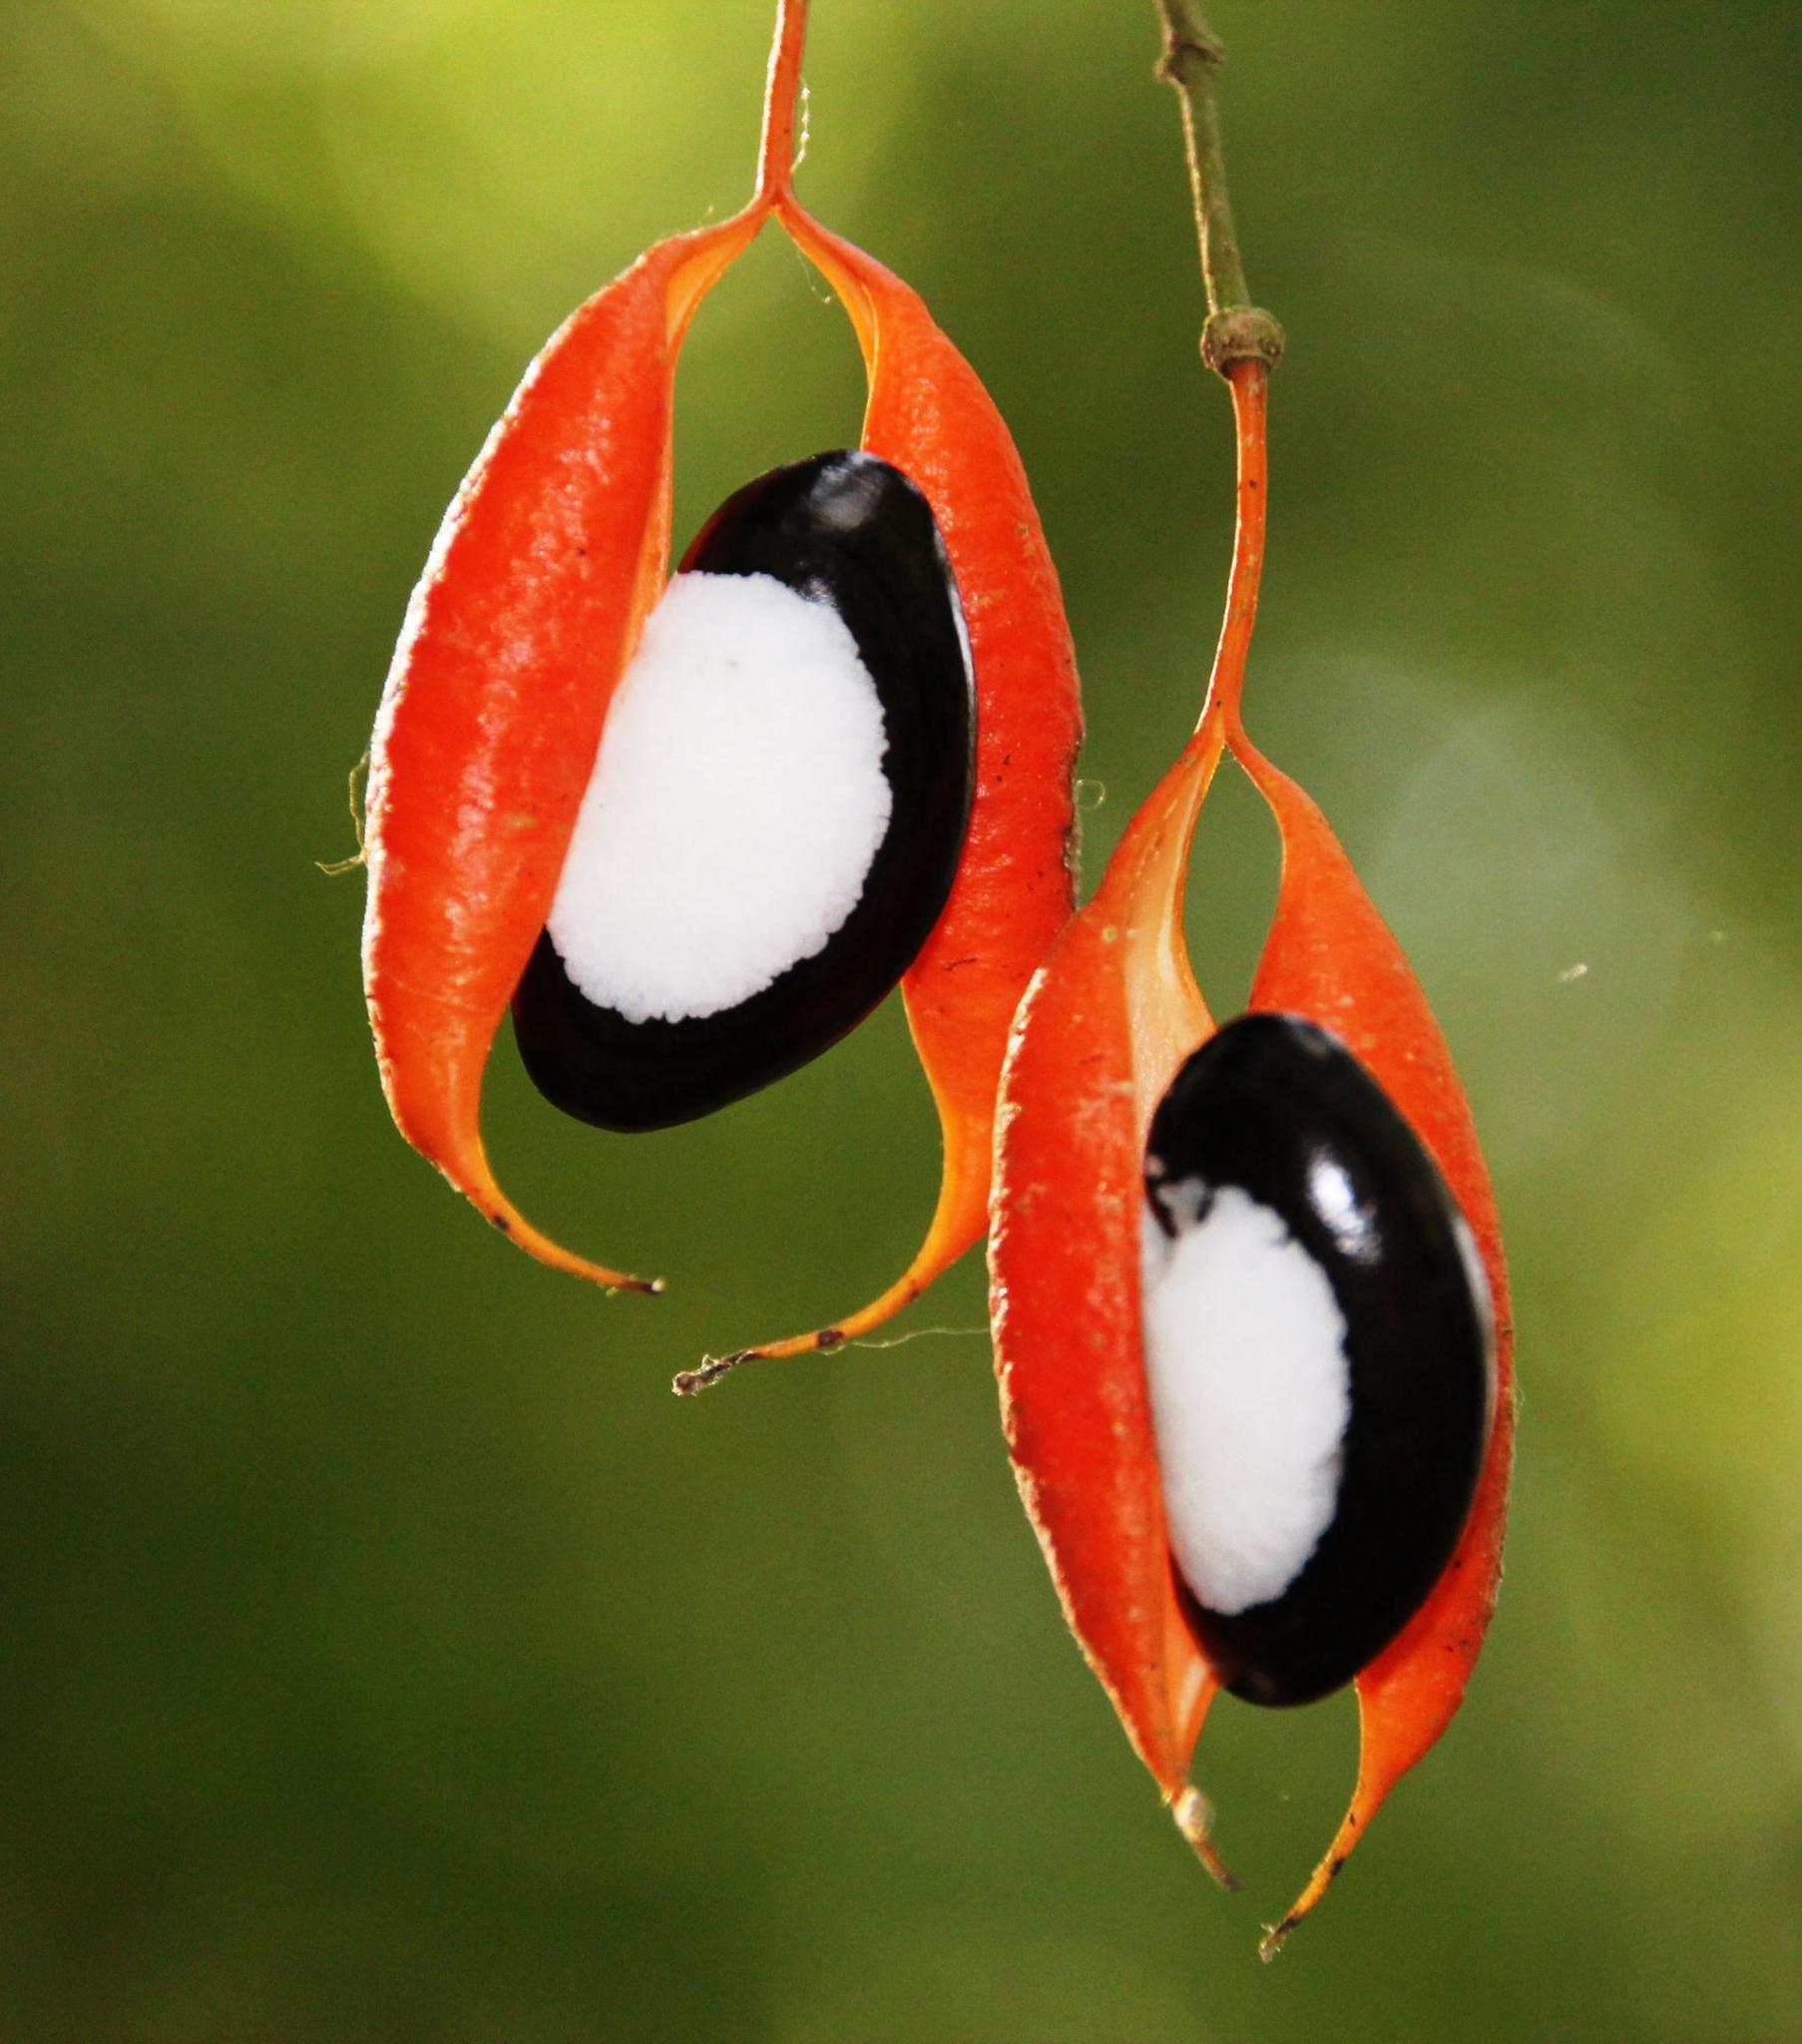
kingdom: Plantae
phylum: Tracheophyta
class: Magnoliopsida
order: Fabales
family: Fabaceae
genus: Swartzia
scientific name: Swartzia simplex
